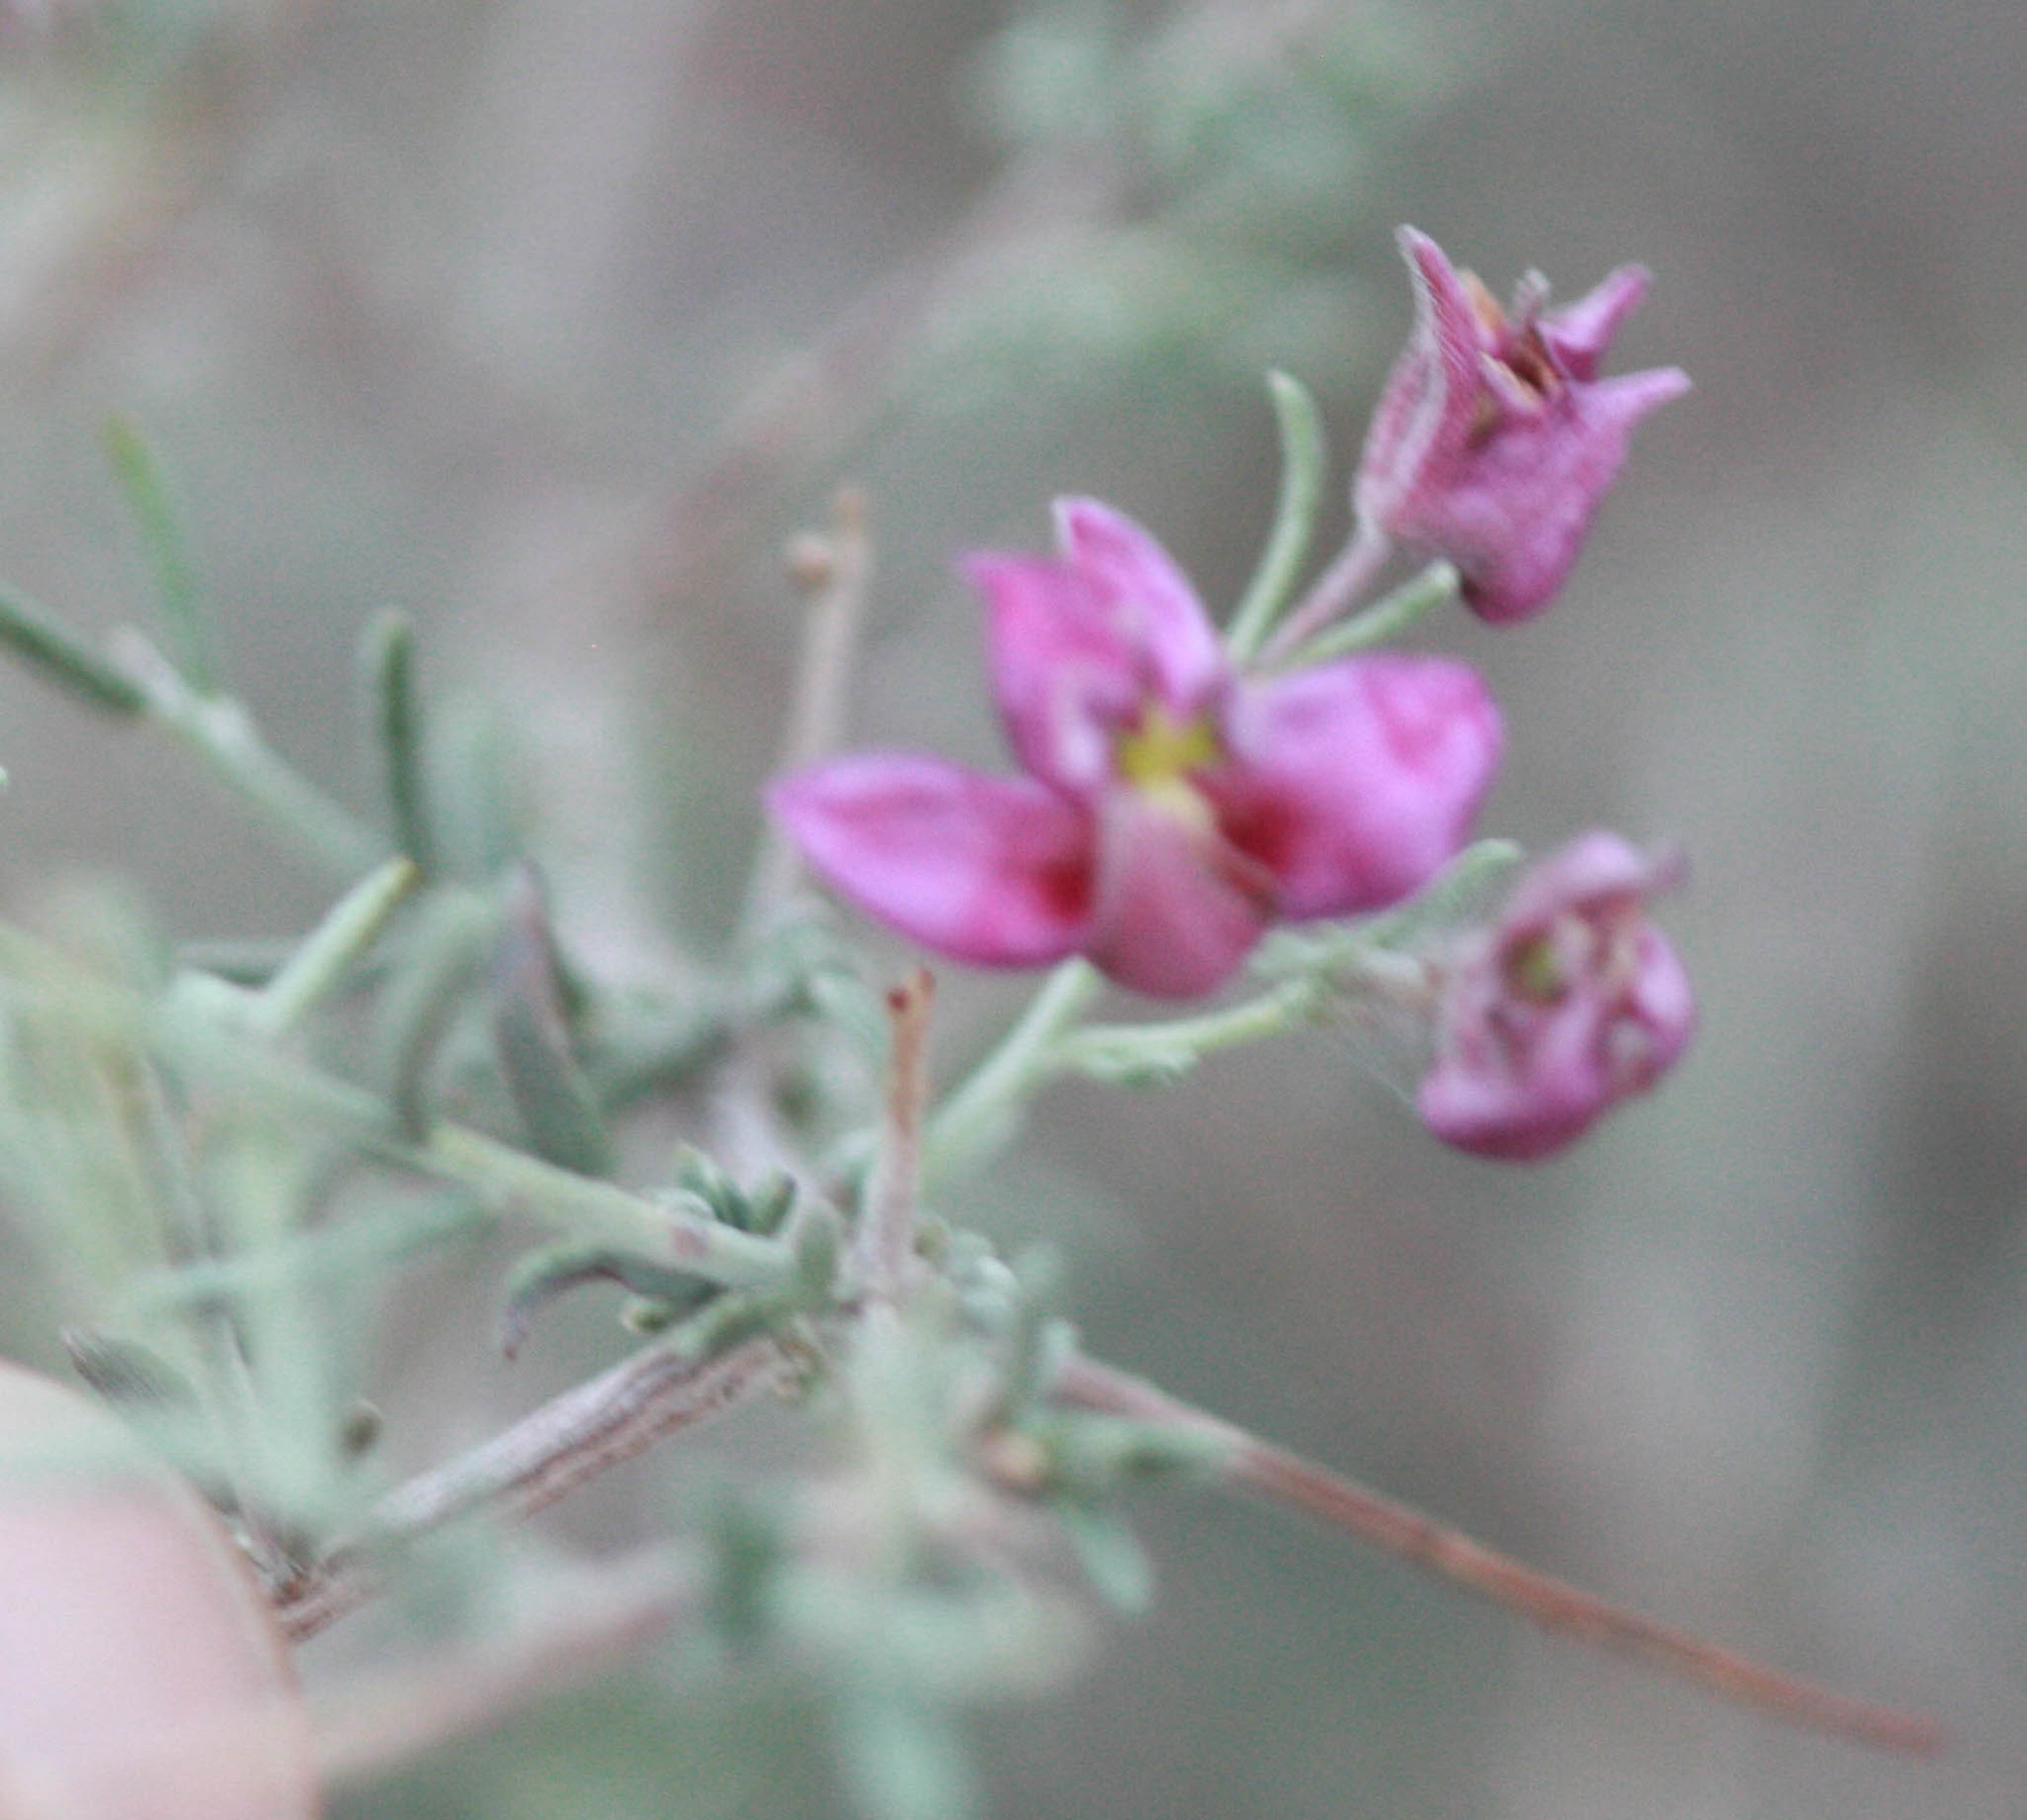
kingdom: Plantae
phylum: Tracheophyta
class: Magnoliopsida
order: Zygophyllales
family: Krameriaceae
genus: Krameria
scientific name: Krameria erecta
